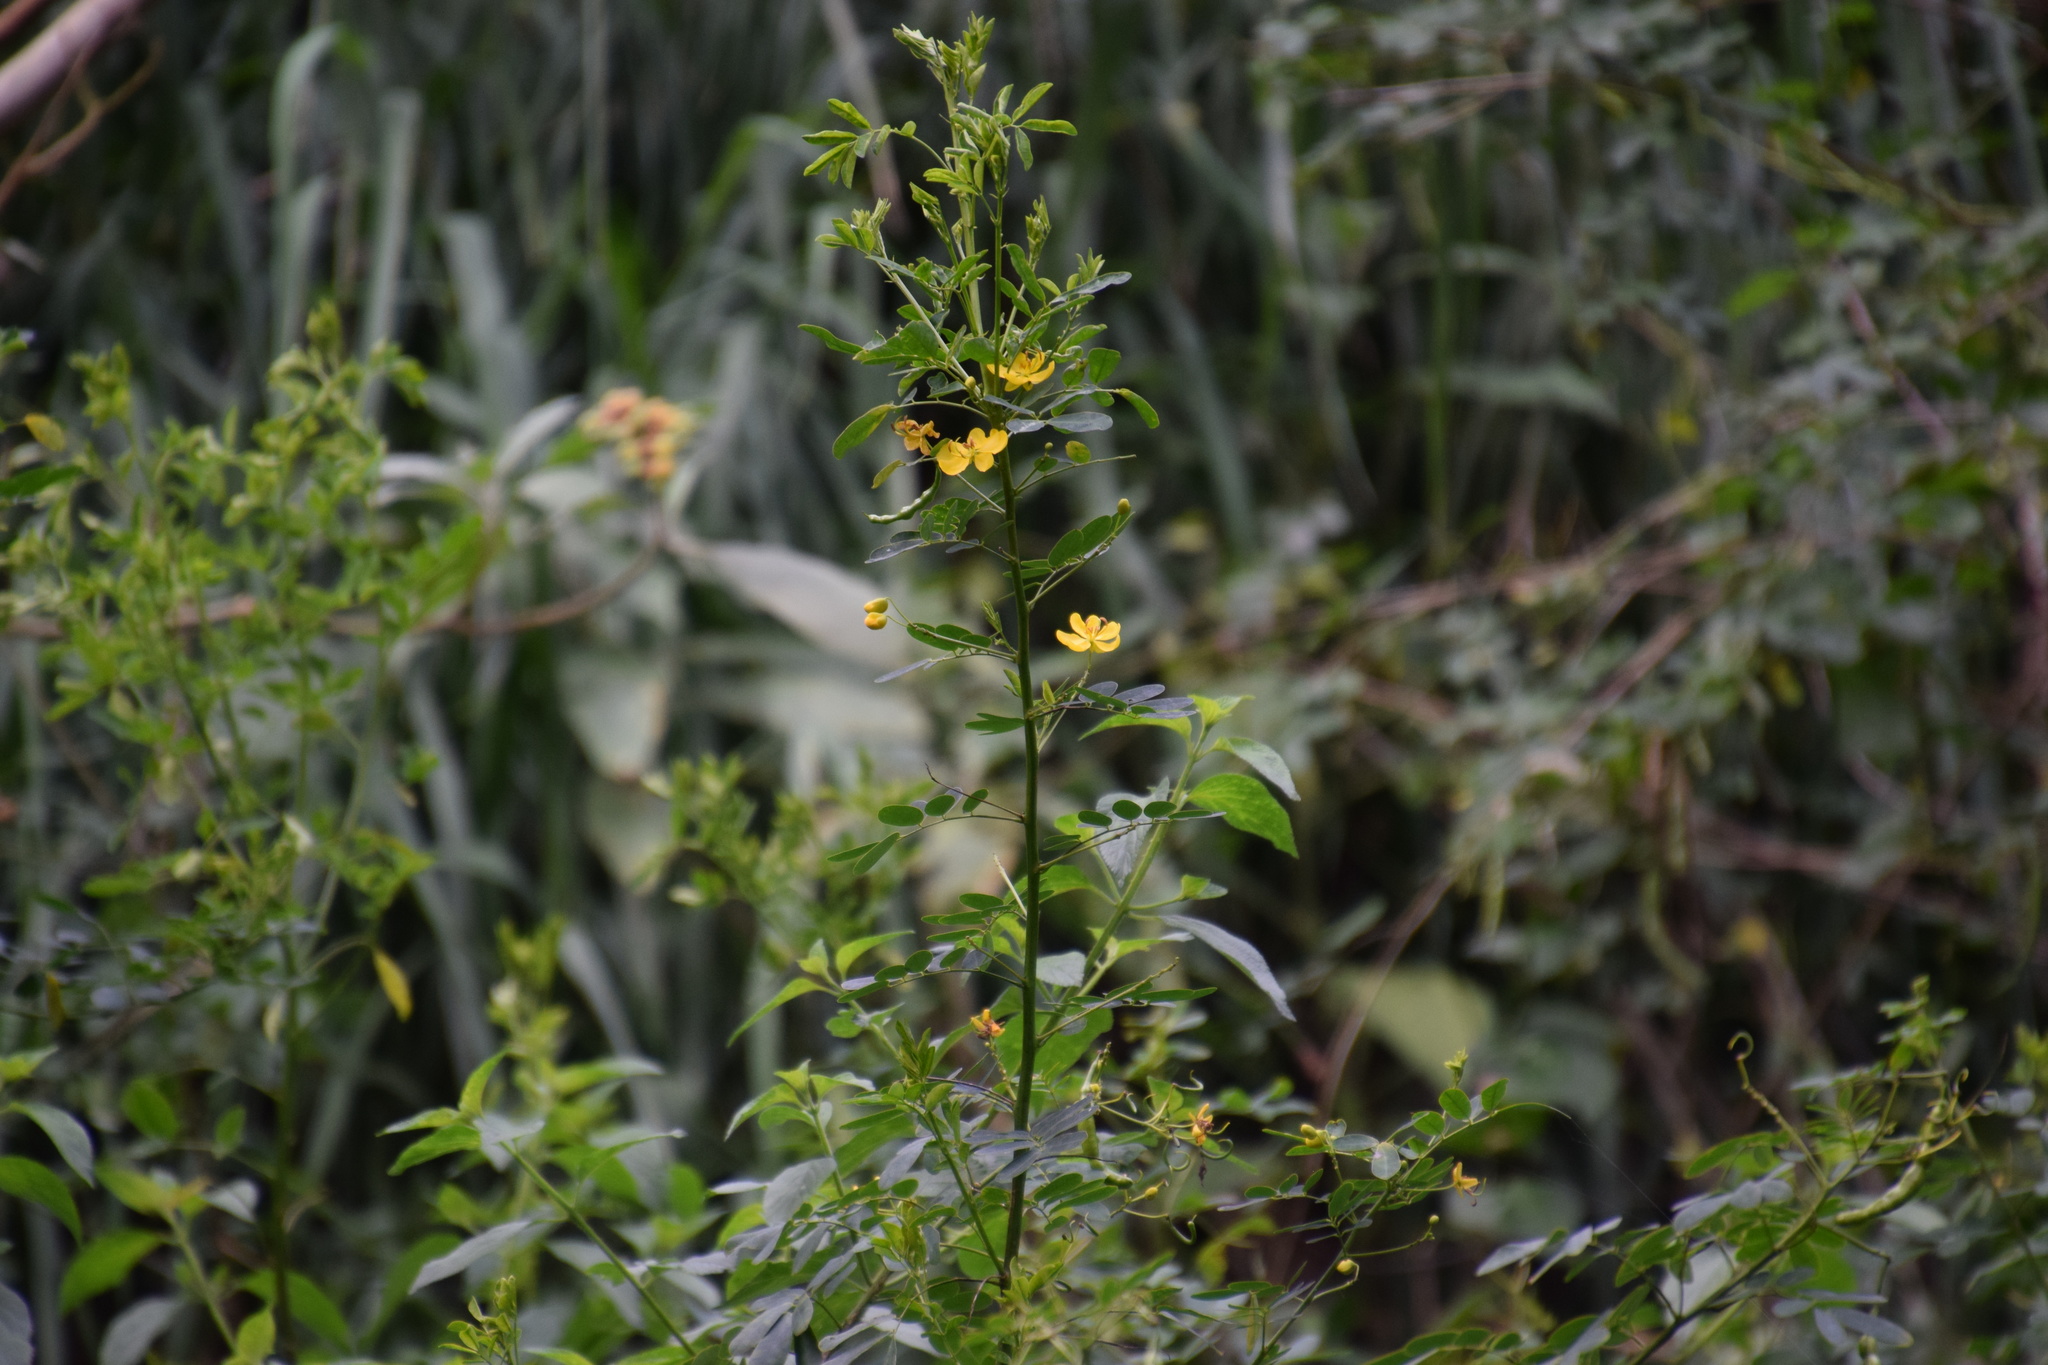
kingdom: Plantae
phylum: Tracheophyta
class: Magnoliopsida
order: Fabales
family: Fabaceae
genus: Senna
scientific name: Senna pendula
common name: Easter cassia
